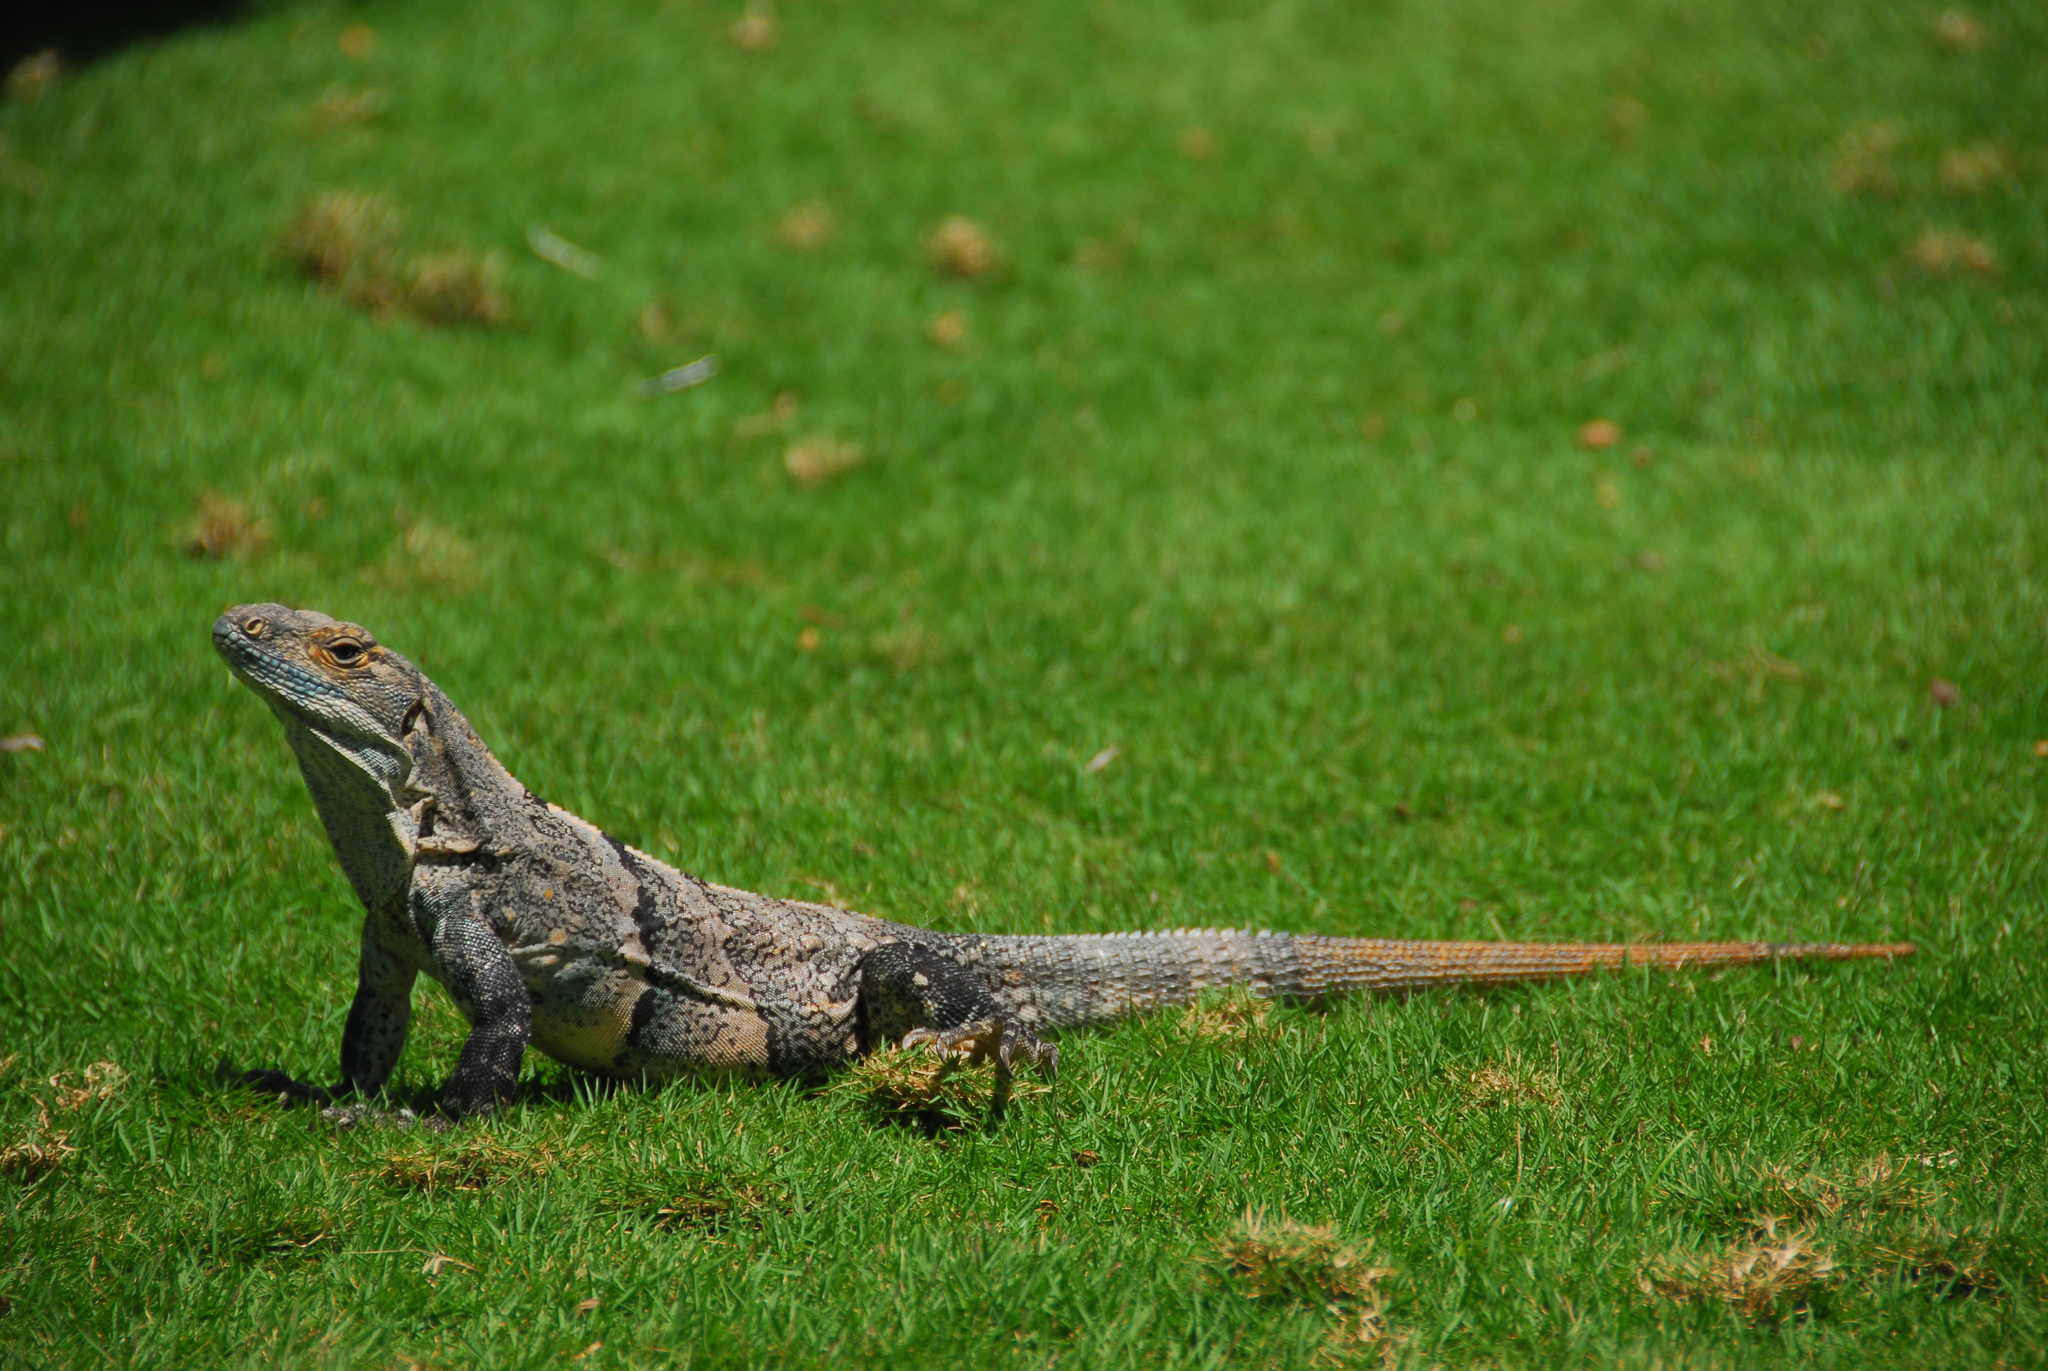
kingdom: Animalia
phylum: Chordata
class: Squamata
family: Iguanidae
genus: Ctenosaura
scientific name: Ctenosaura similis
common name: Black spiny-tailed iguana
